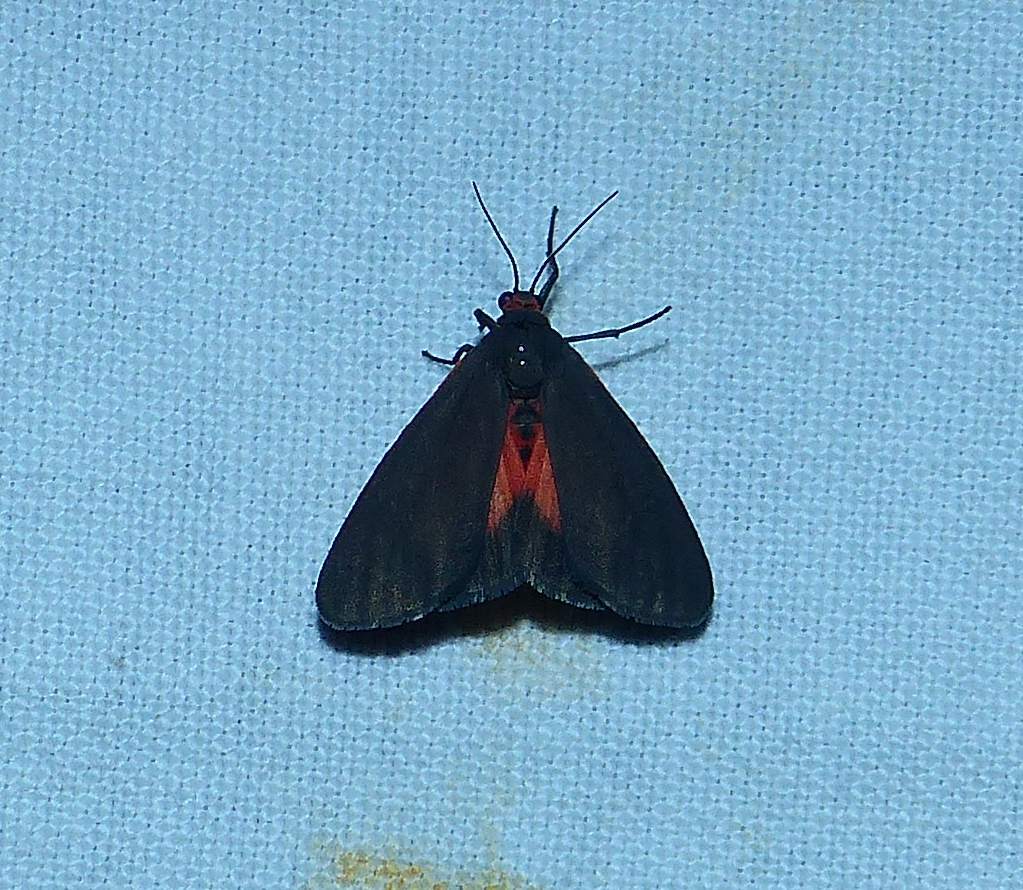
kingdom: Animalia
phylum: Arthropoda
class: Insecta
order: Lepidoptera
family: Erebidae
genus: Virbia
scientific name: Virbia laeta
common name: Joyful holomelina moth
